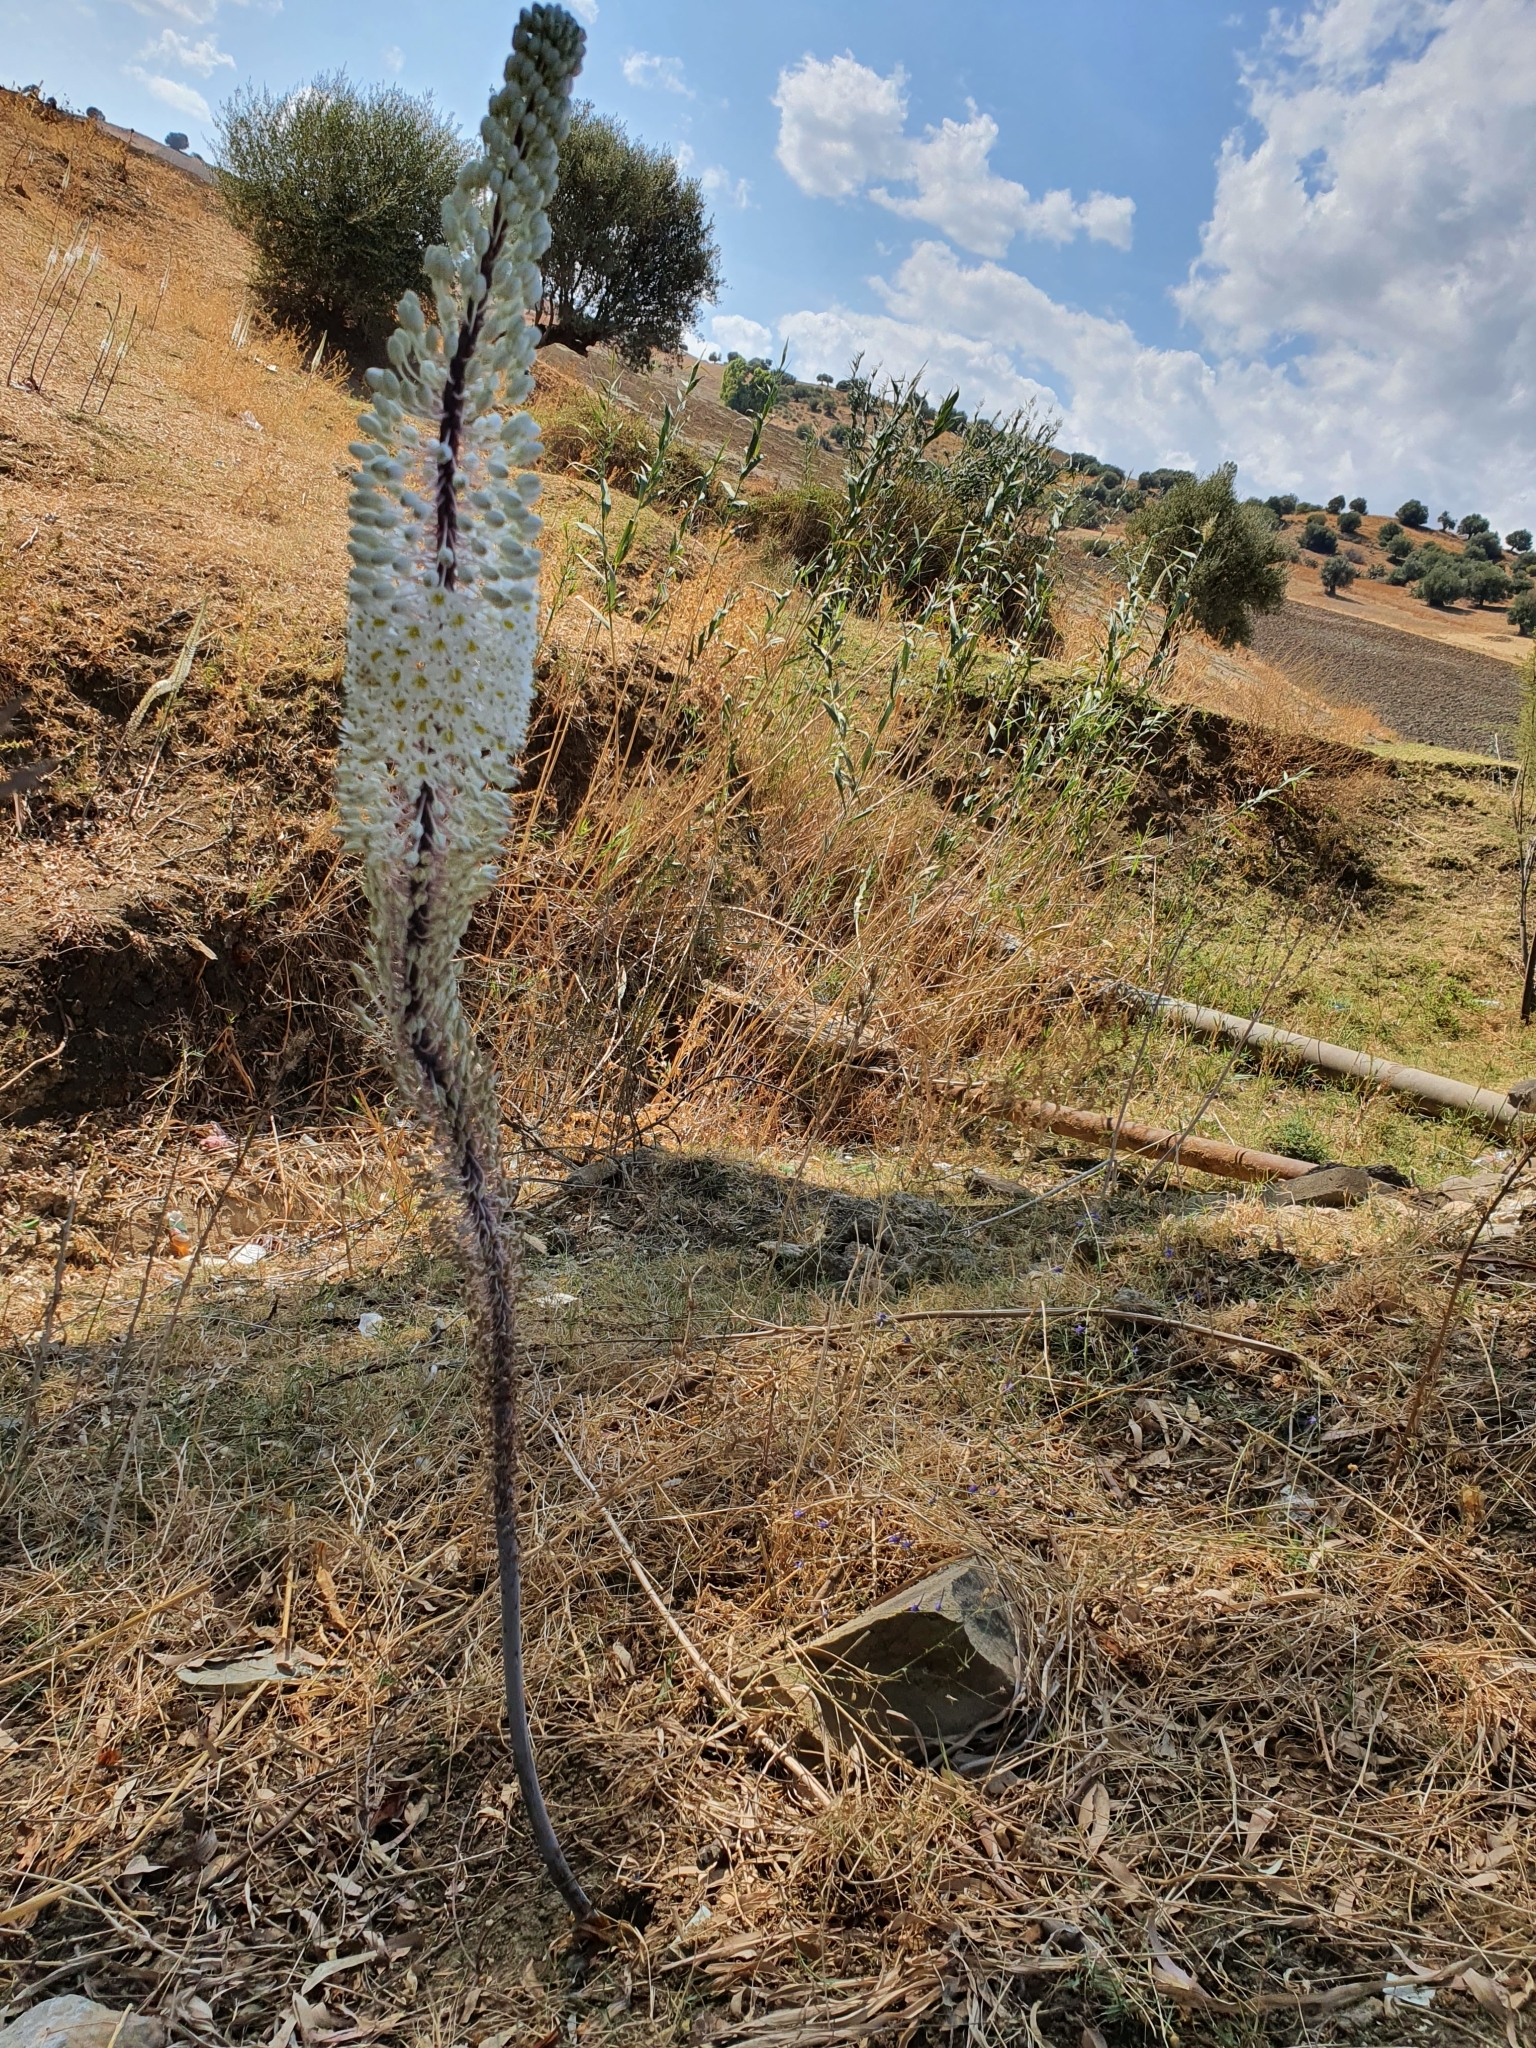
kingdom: Plantae
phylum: Tracheophyta
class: Liliopsida
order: Asparagales
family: Asparagaceae
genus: Drimia
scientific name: Drimia numidica
